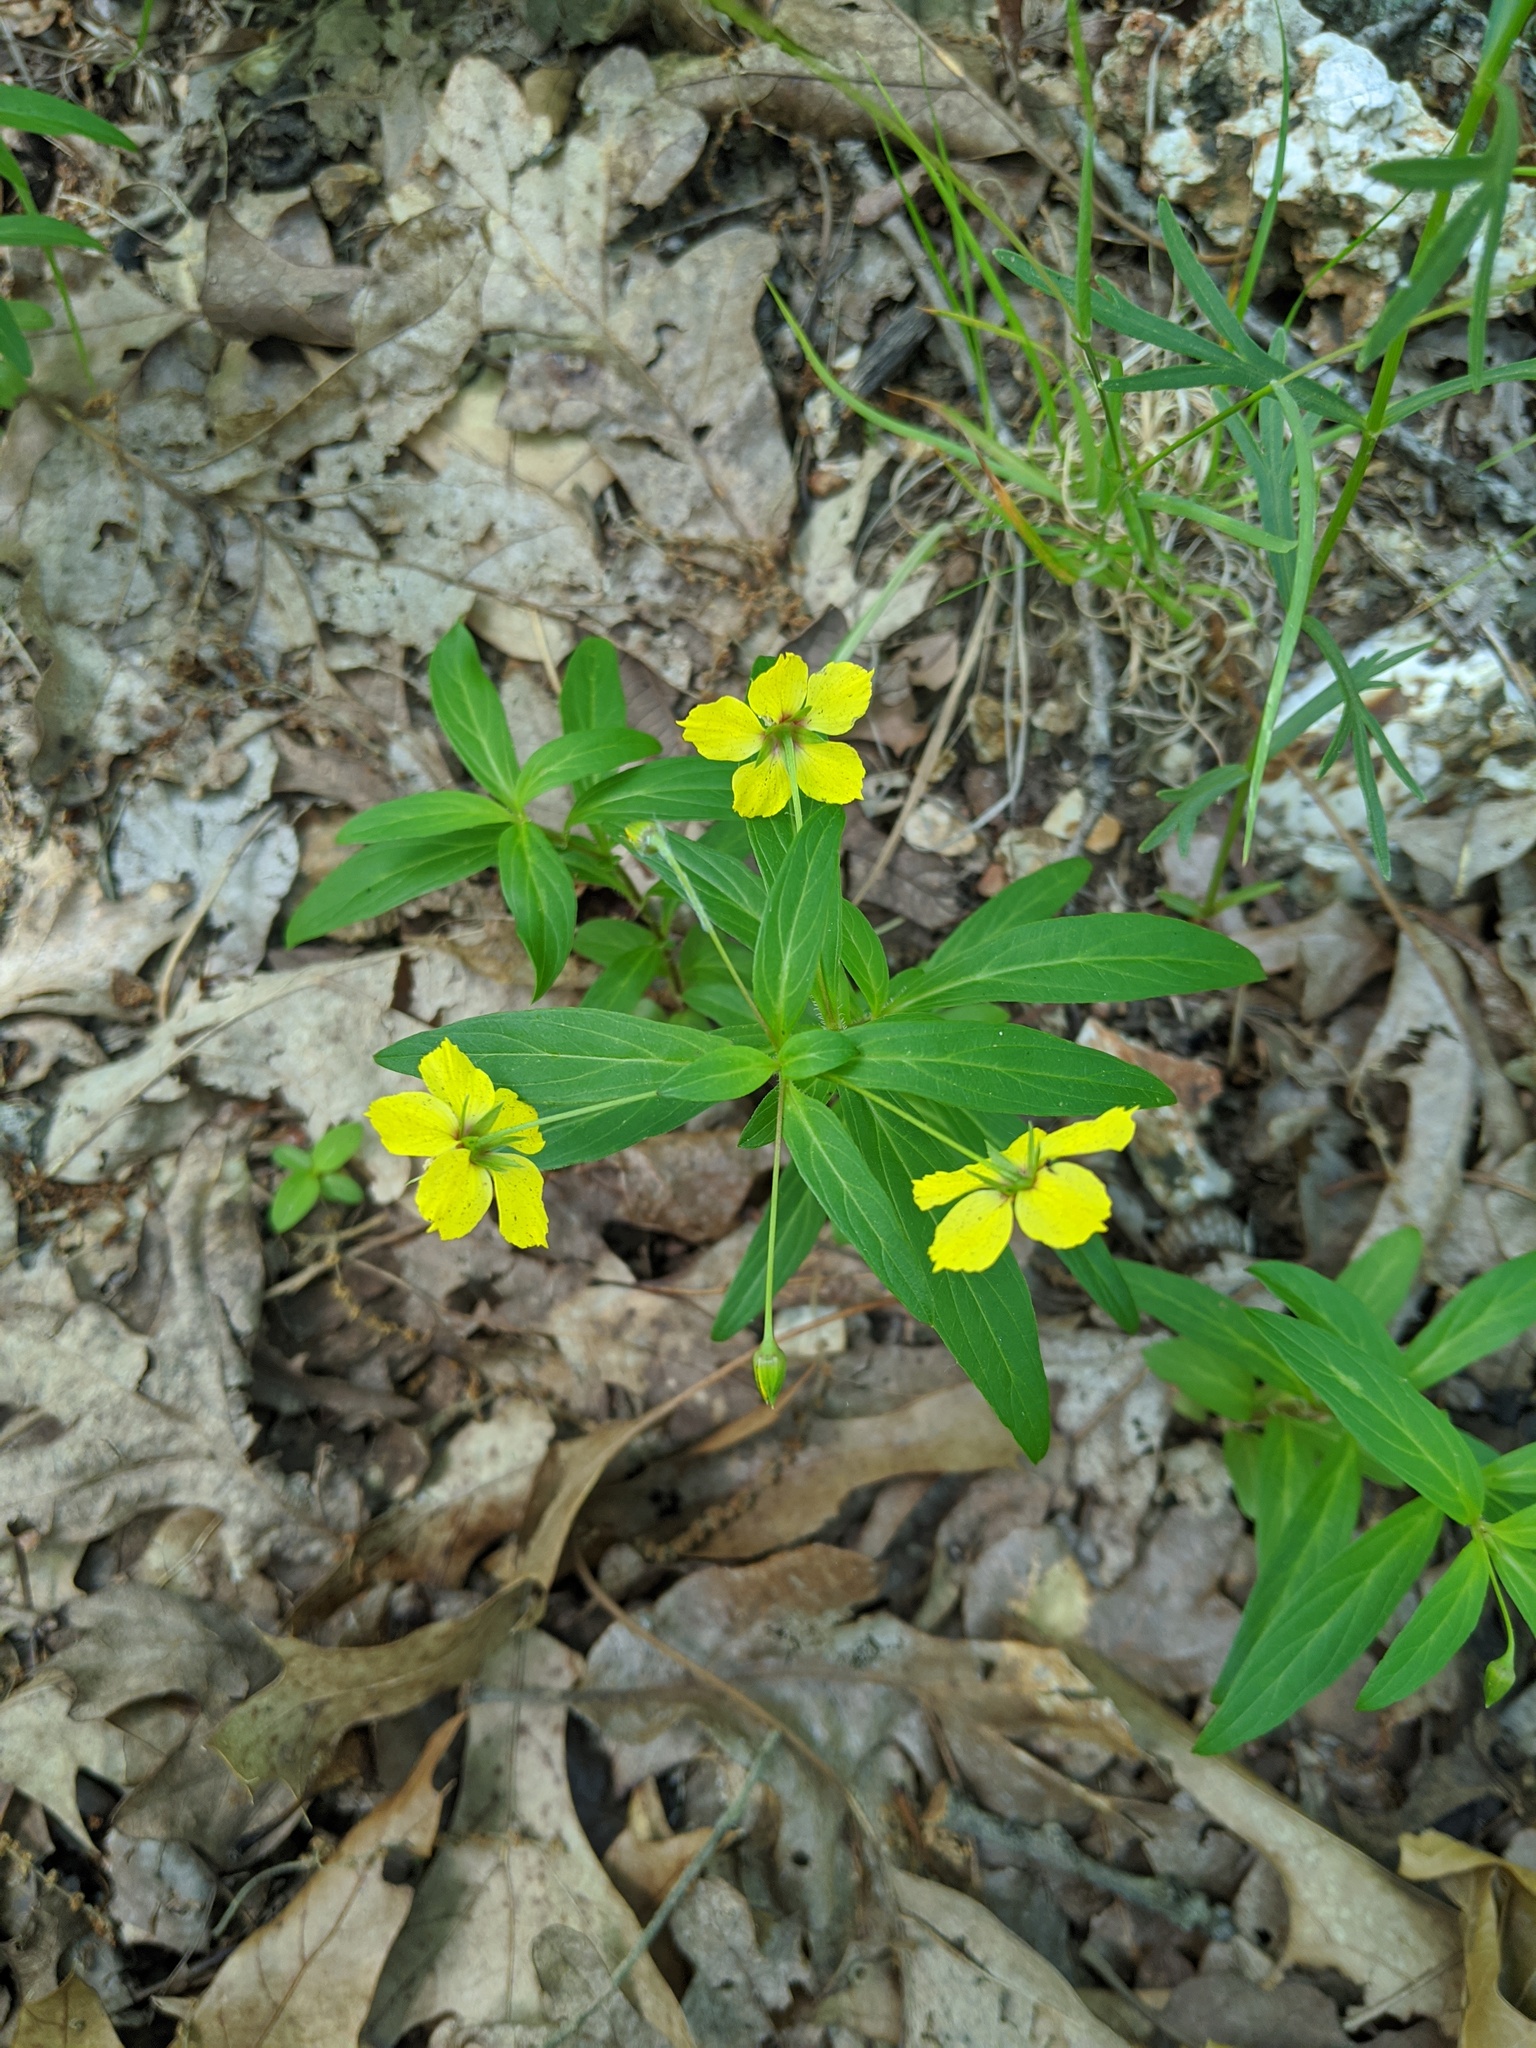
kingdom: Plantae
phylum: Tracheophyta
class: Magnoliopsida
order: Ericales
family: Primulaceae
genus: Lysimachia
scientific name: Lysimachia lanceolata
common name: Lance-leaved loosestrife
